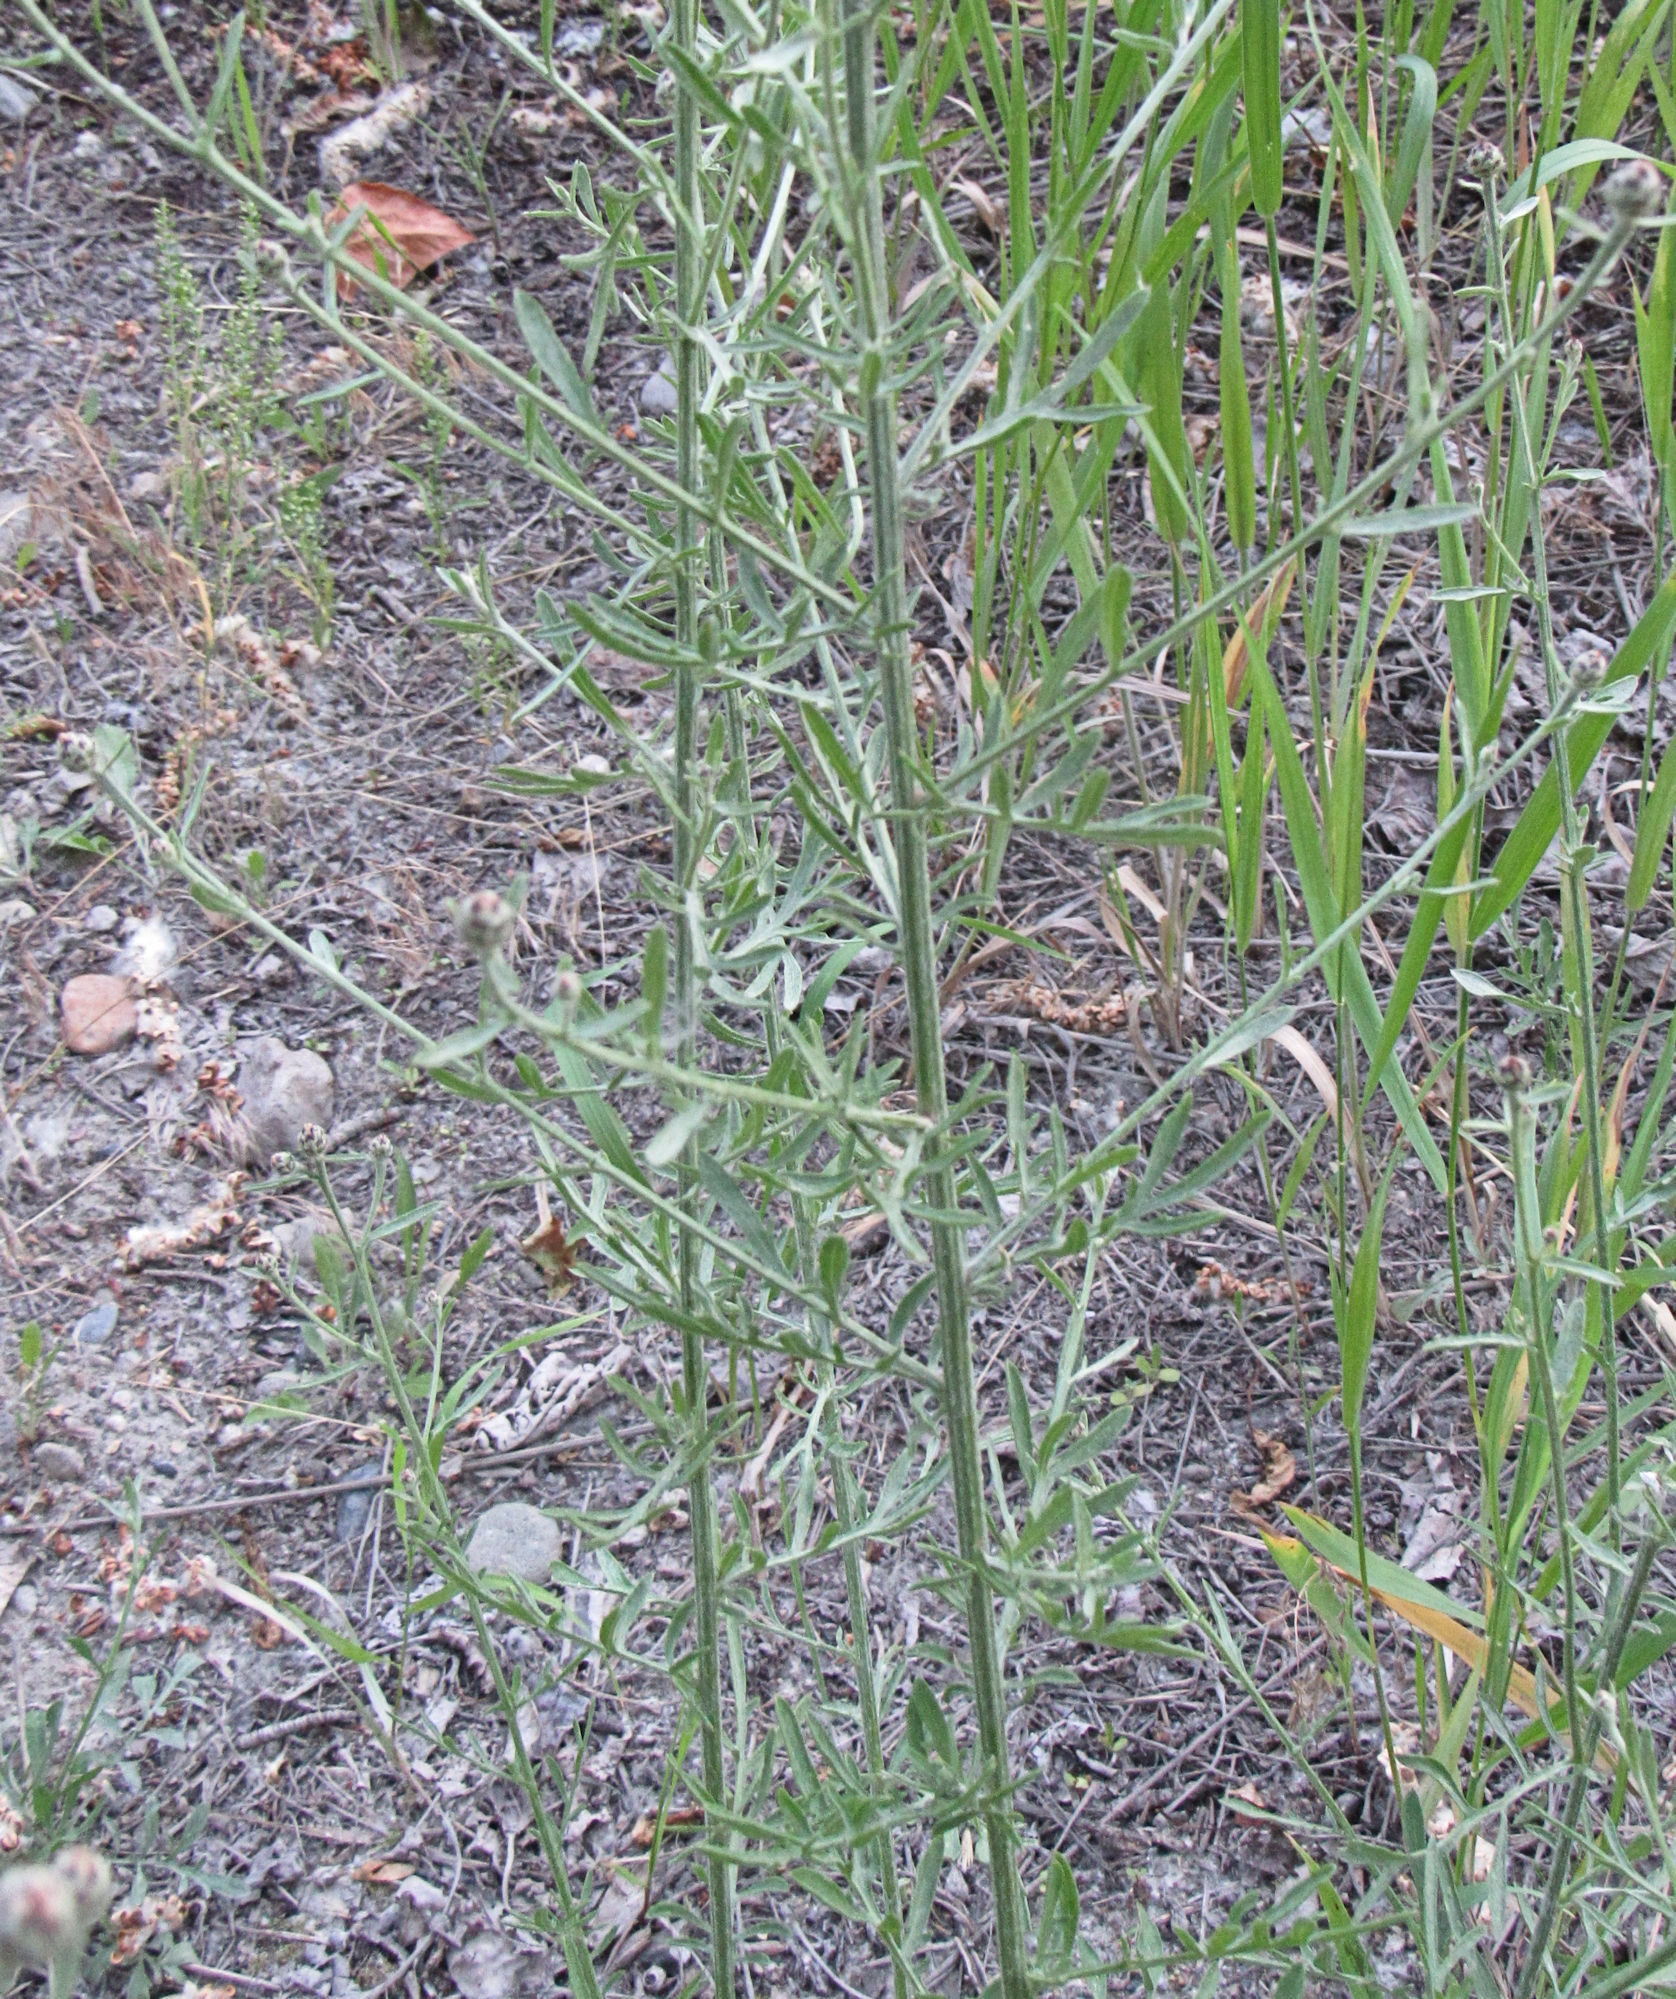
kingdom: Plantae
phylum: Tracheophyta
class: Magnoliopsida
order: Asterales
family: Asteraceae
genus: Centaurea
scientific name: Centaurea stoebe
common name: Spotted knapweed
